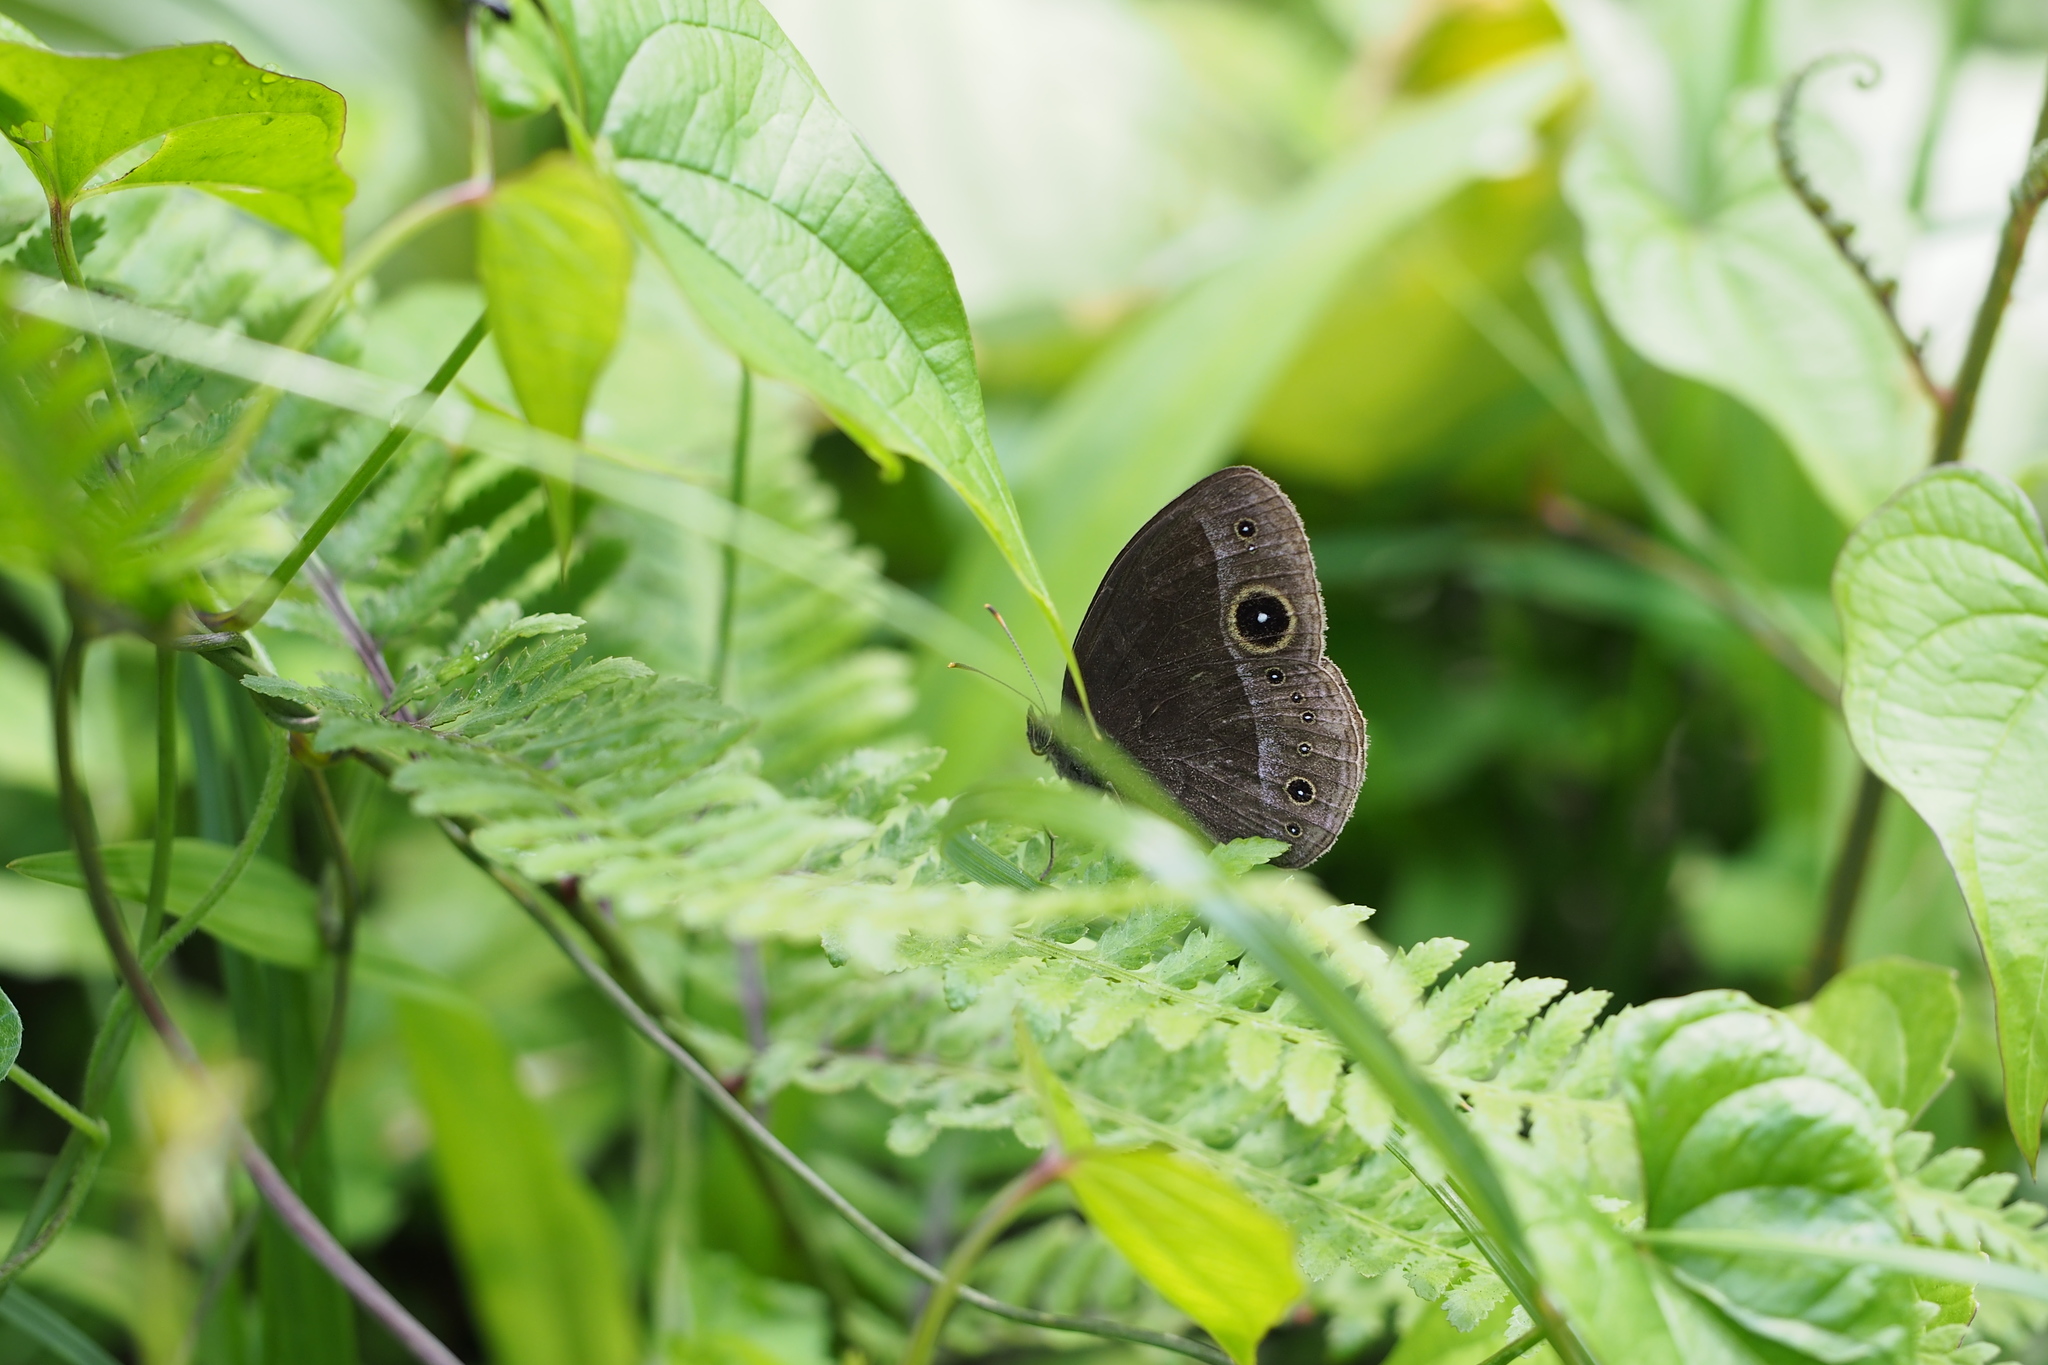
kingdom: Animalia
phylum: Arthropoda
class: Insecta
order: Lepidoptera
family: Nymphalidae
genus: Mycalesis
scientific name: Mycalesis francisca
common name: Lilacine bushbrown
